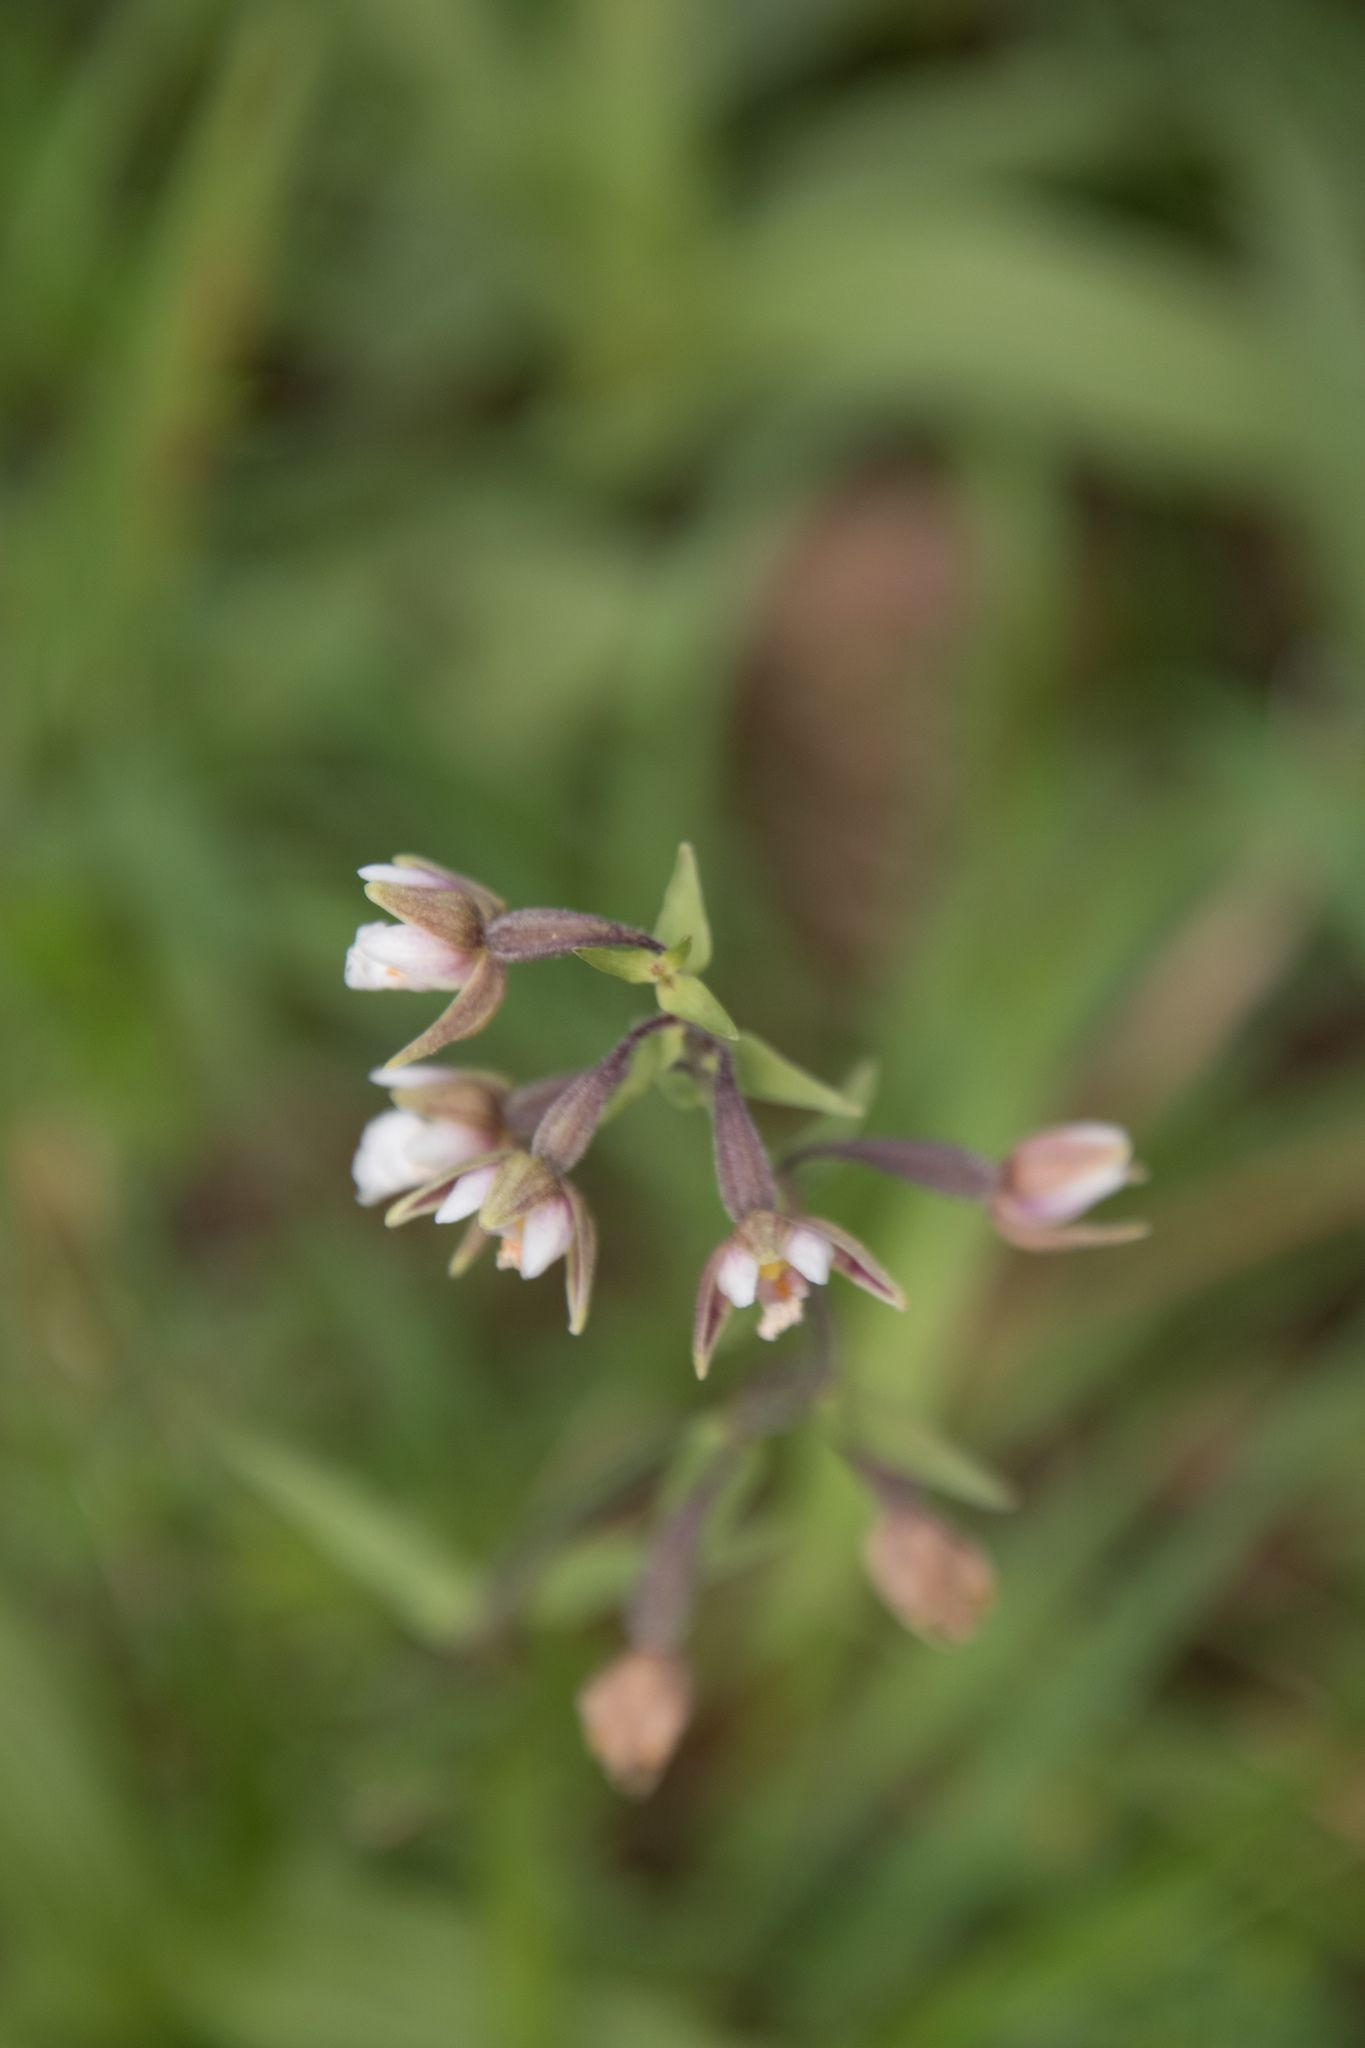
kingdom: Plantae
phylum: Tracheophyta
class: Liliopsida
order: Asparagales
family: Orchidaceae
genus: Epipactis
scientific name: Epipactis palustris
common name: Marsh helleborine
